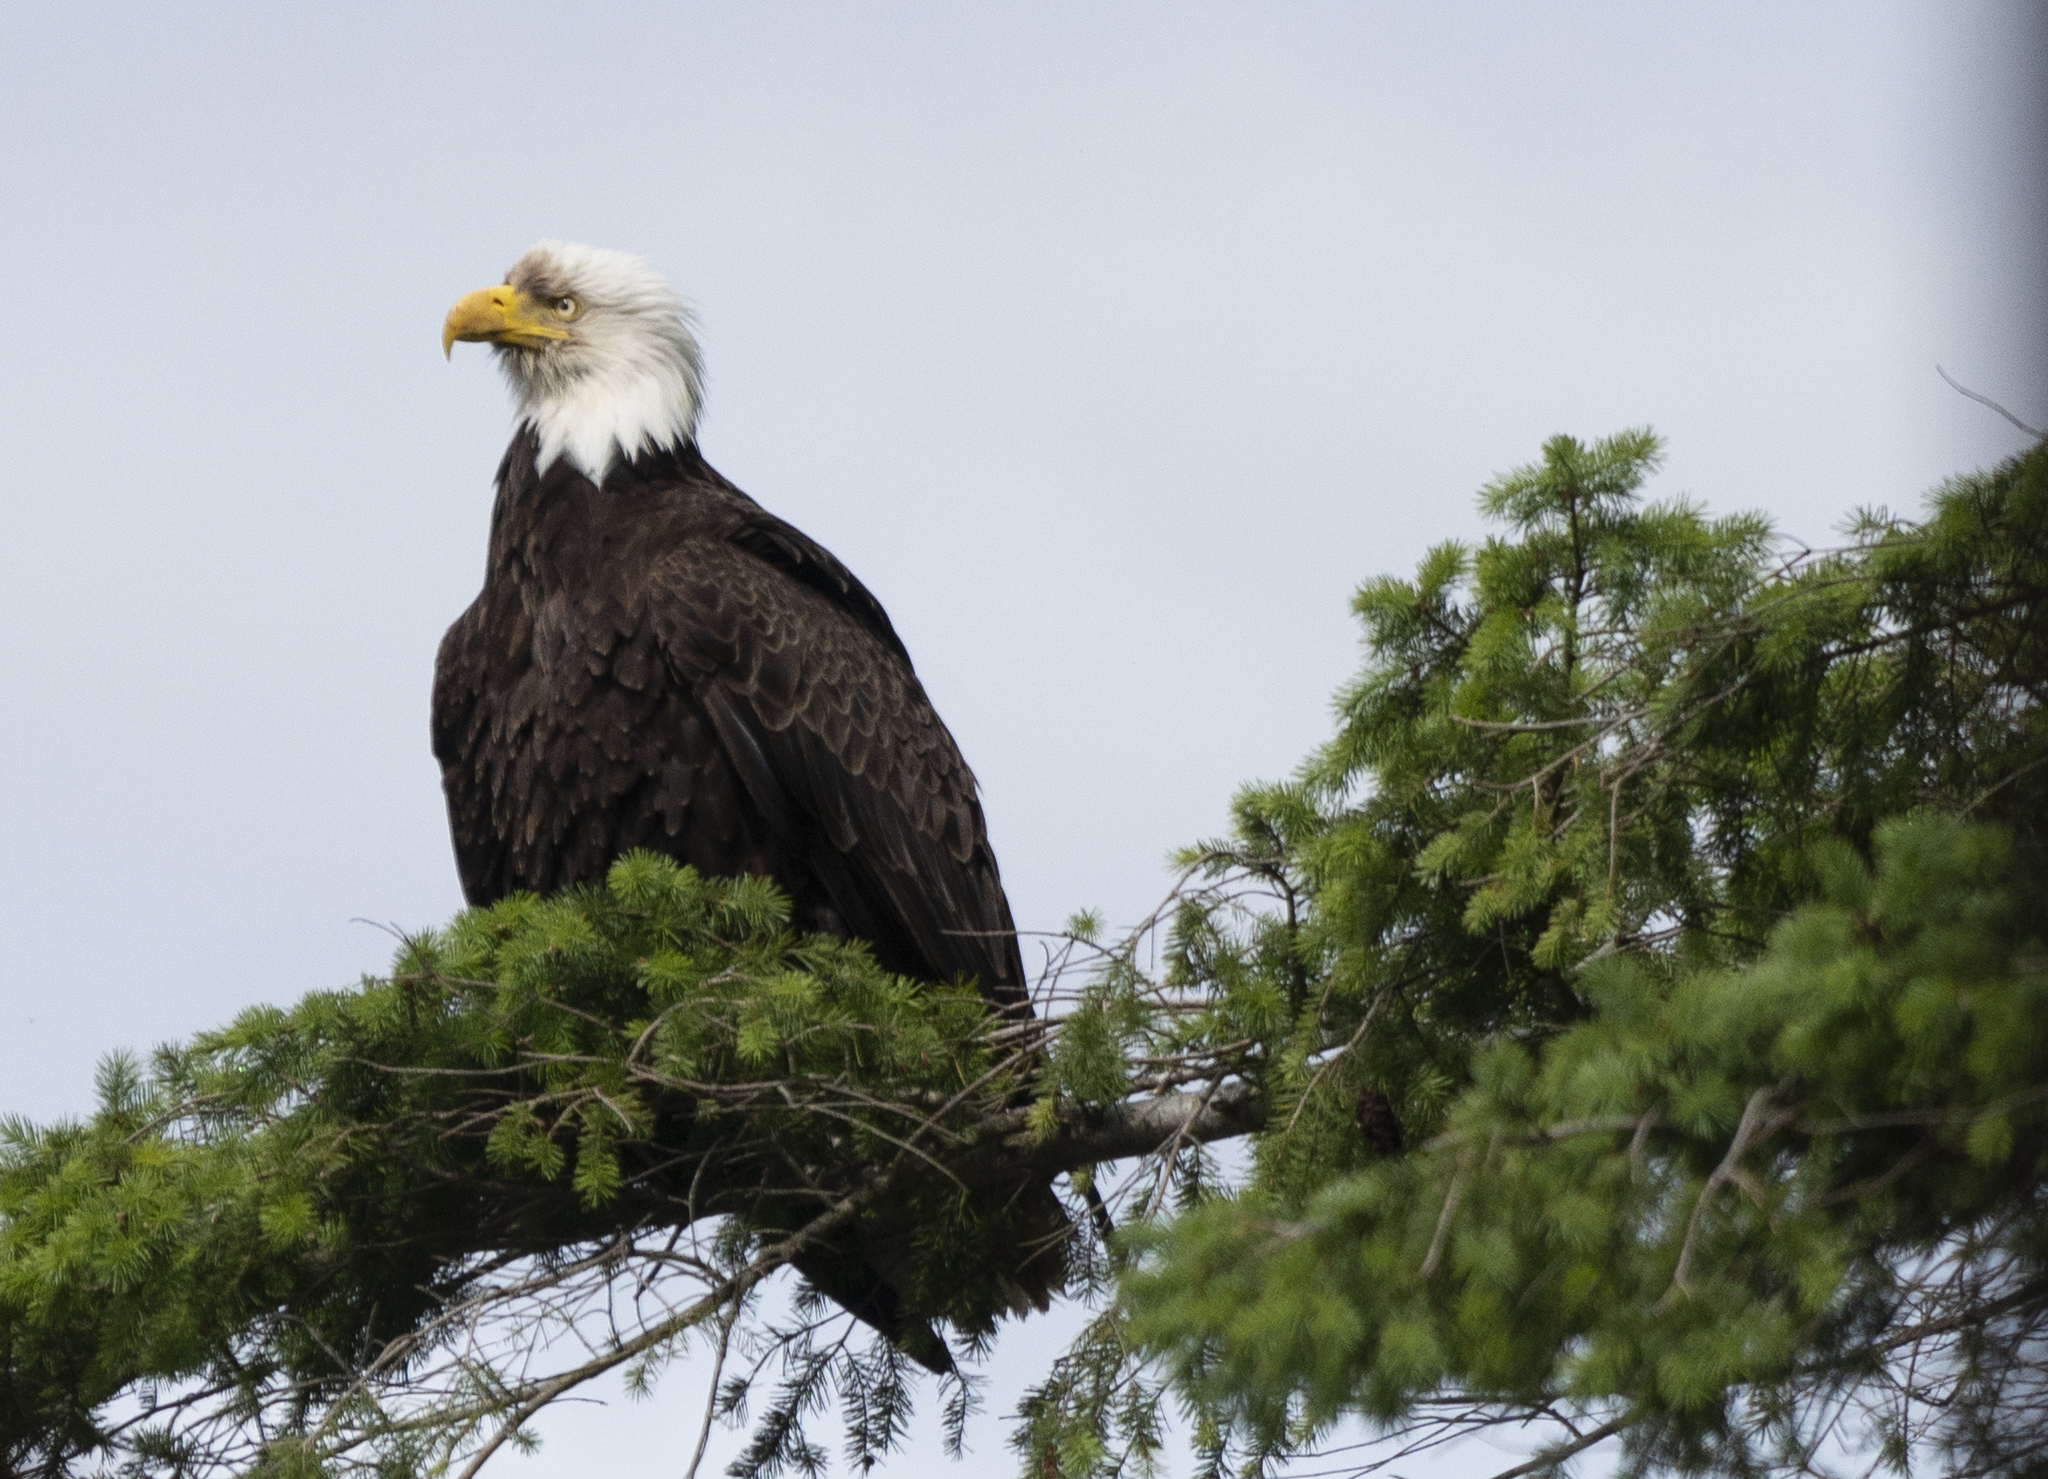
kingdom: Animalia
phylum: Chordata
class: Aves
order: Accipitriformes
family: Accipitridae
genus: Haliaeetus
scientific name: Haliaeetus leucocephalus
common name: Bald eagle
